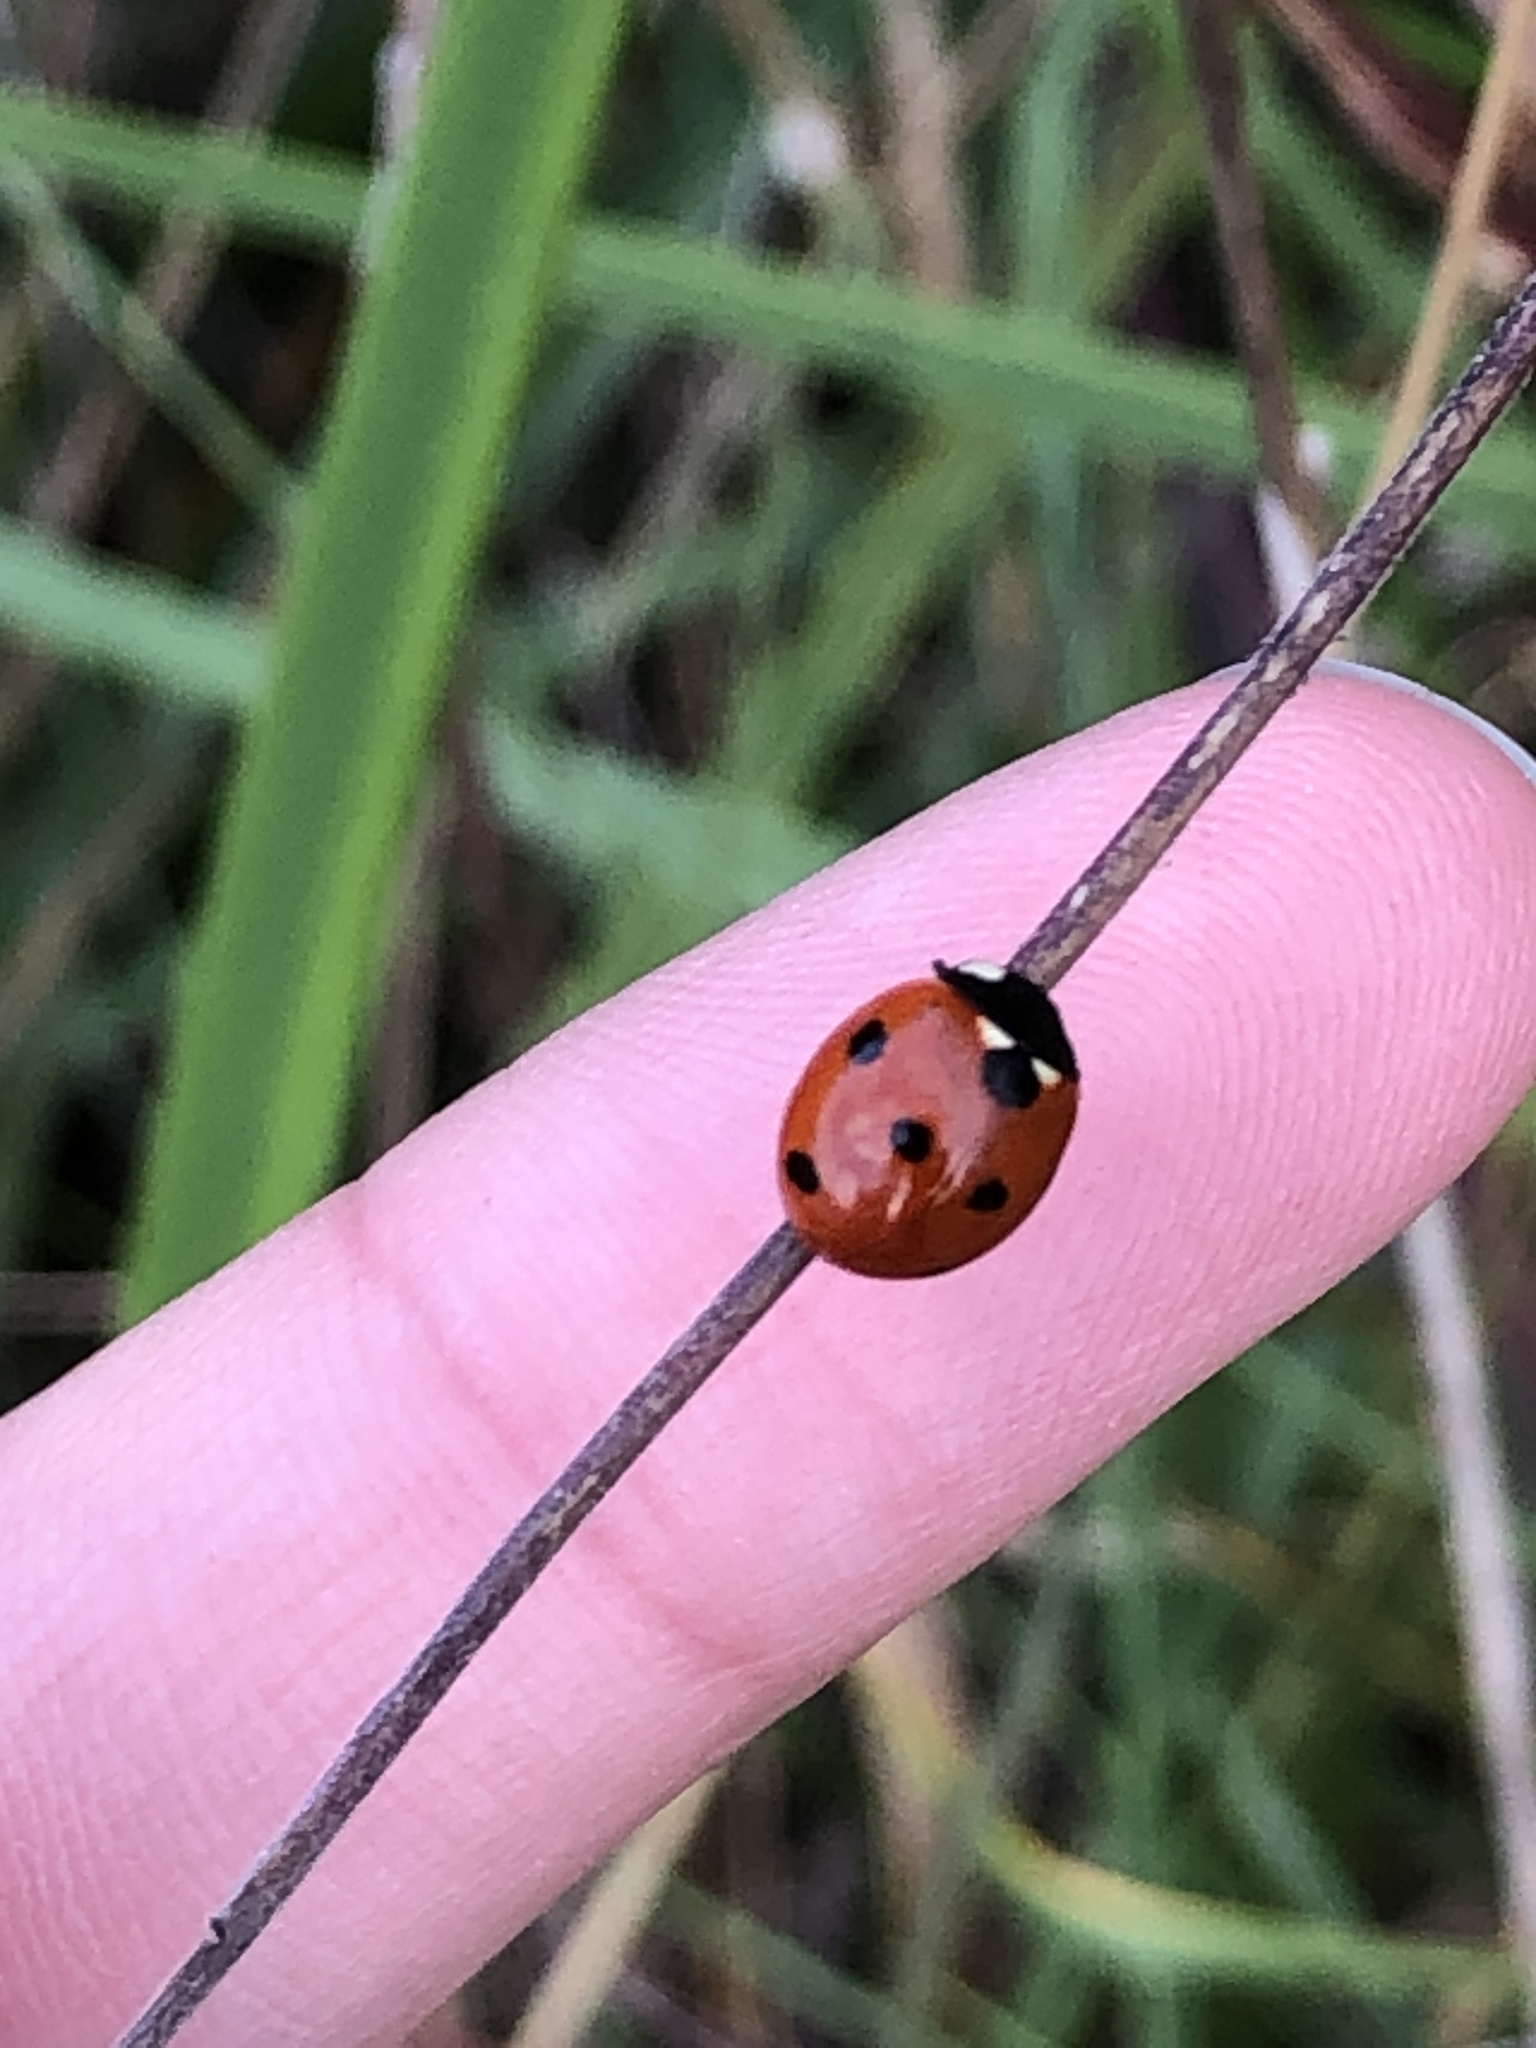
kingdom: Animalia
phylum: Arthropoda
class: Insecta
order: Coleoptera
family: Coccinellidae
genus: Coccinella
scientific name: Coccinella septempunctata
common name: Sevenspotted lady beetle
